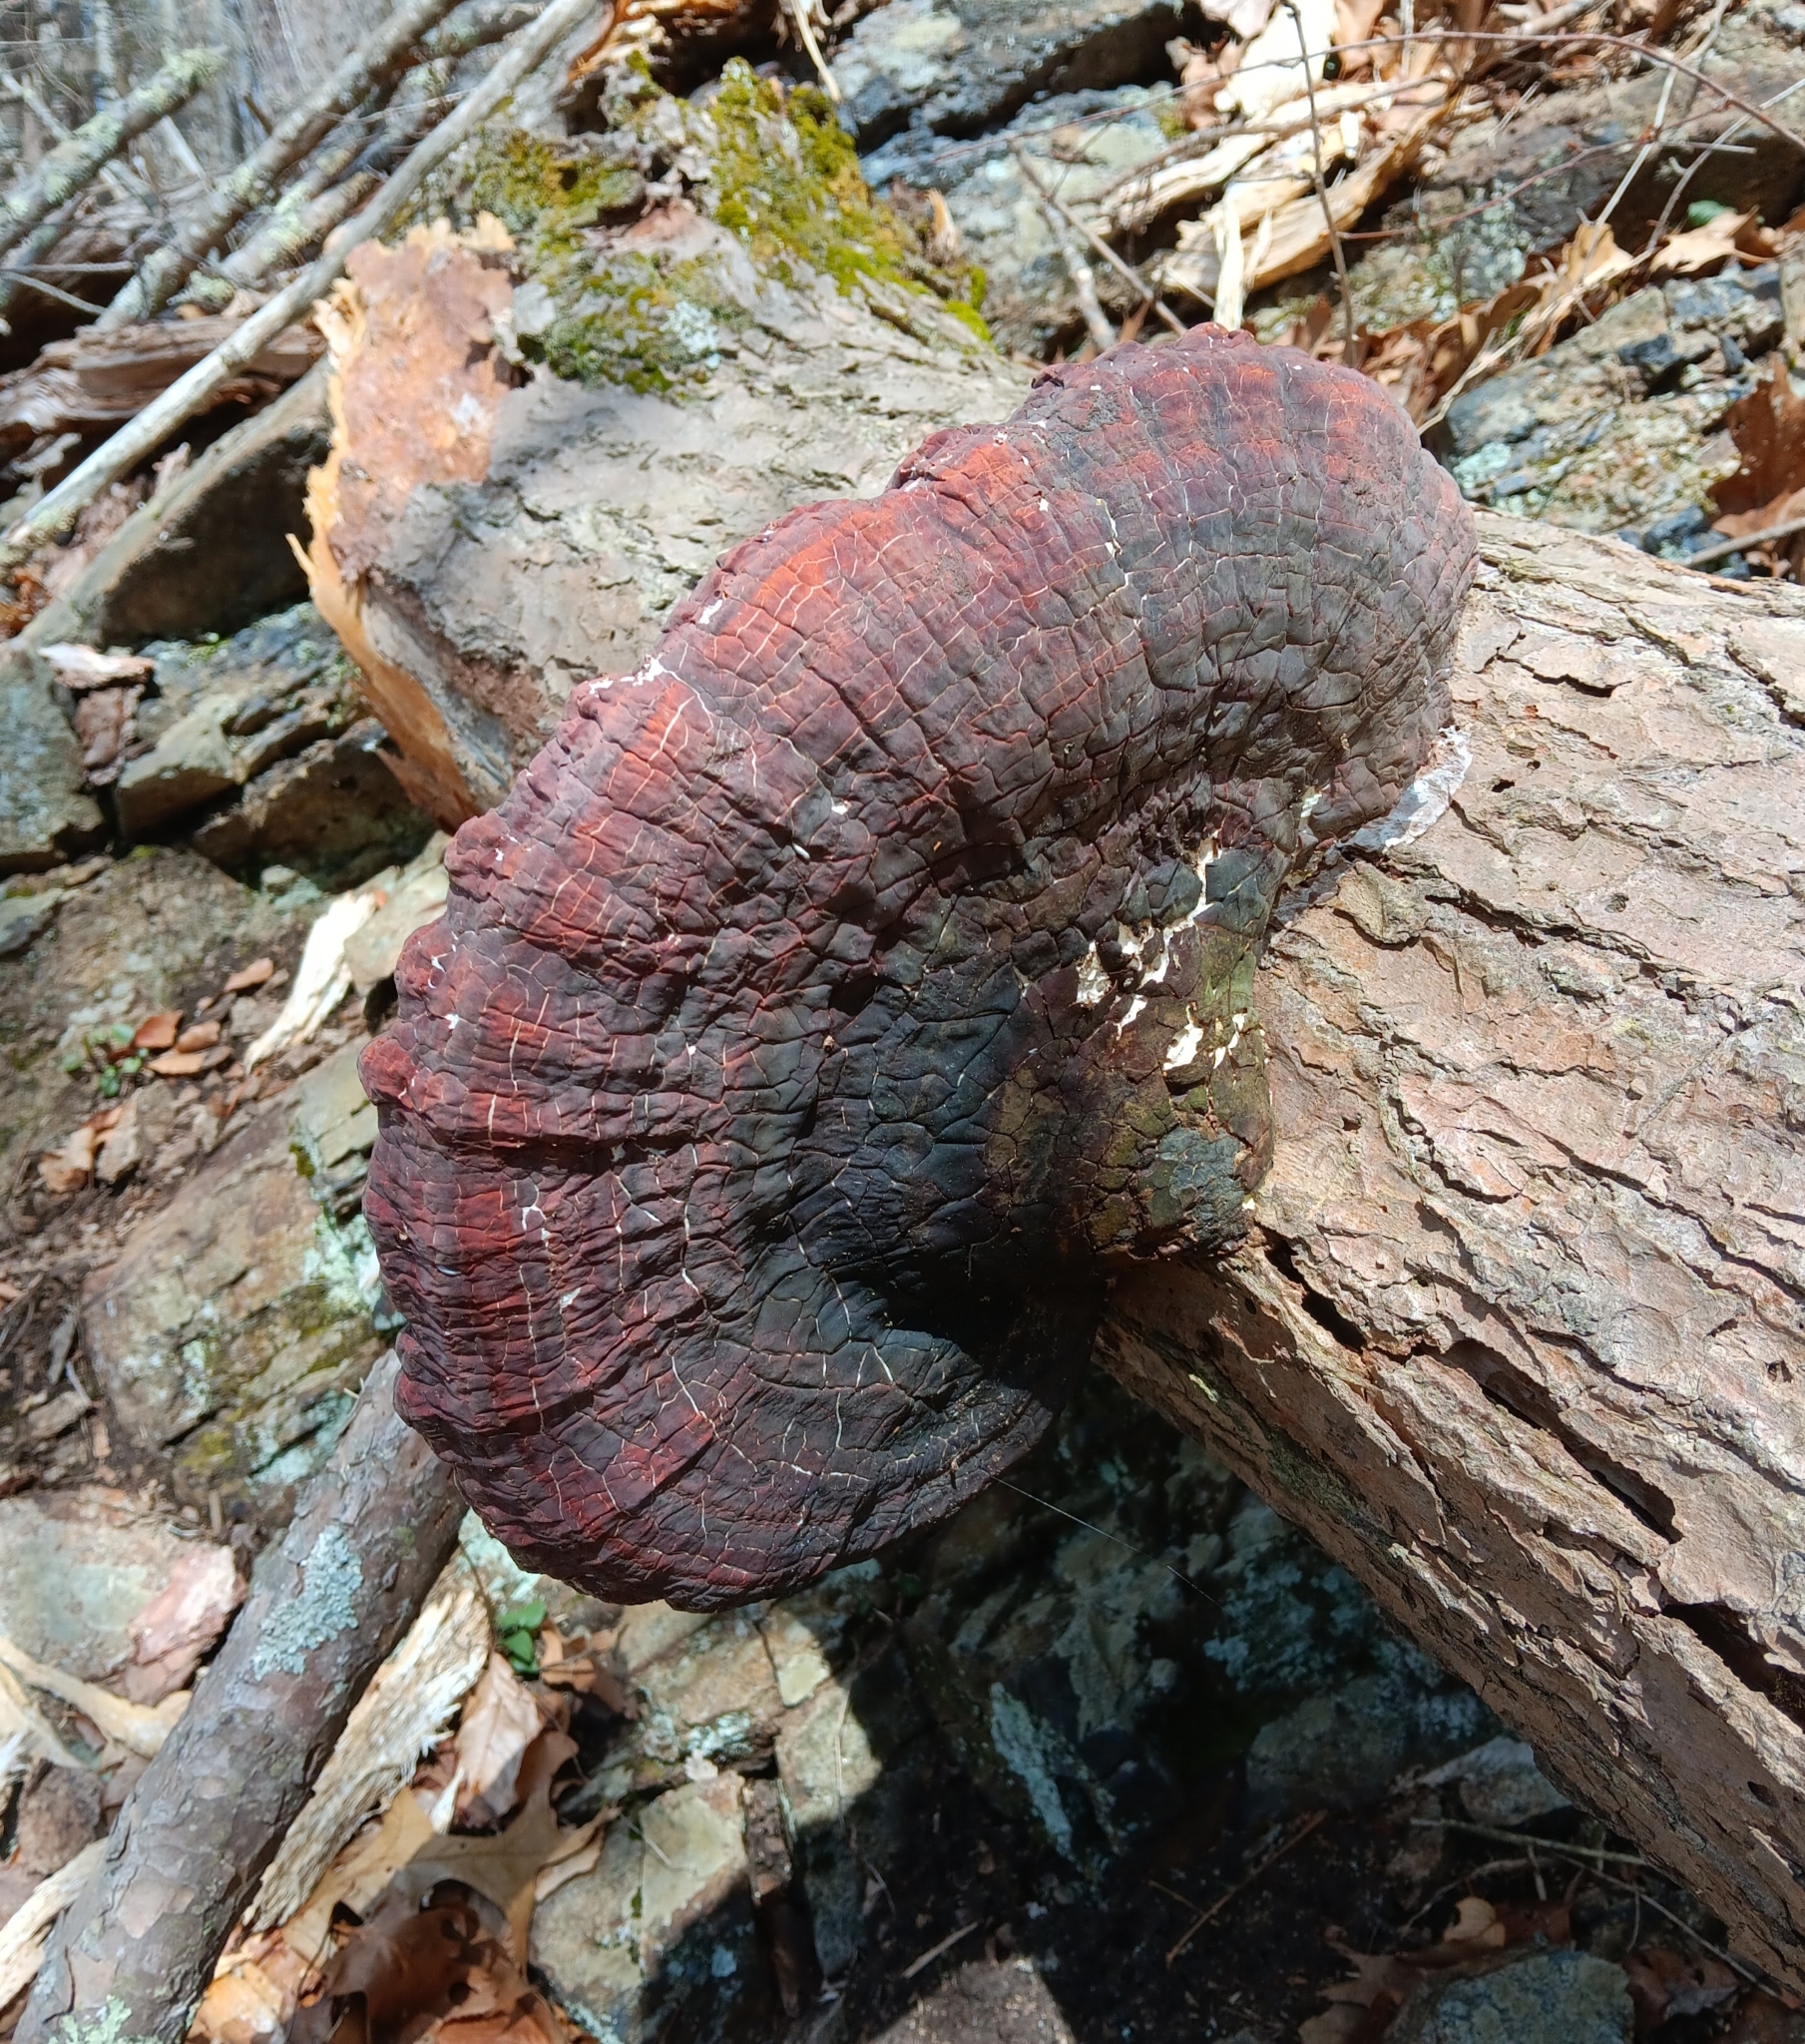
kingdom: Fungi
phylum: Basidiomycota
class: Agaricomycetes
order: Polyporales
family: Polyporaceae
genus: Ganoderma
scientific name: Ganoderma tsugae
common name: Hemlock varnish shelf
